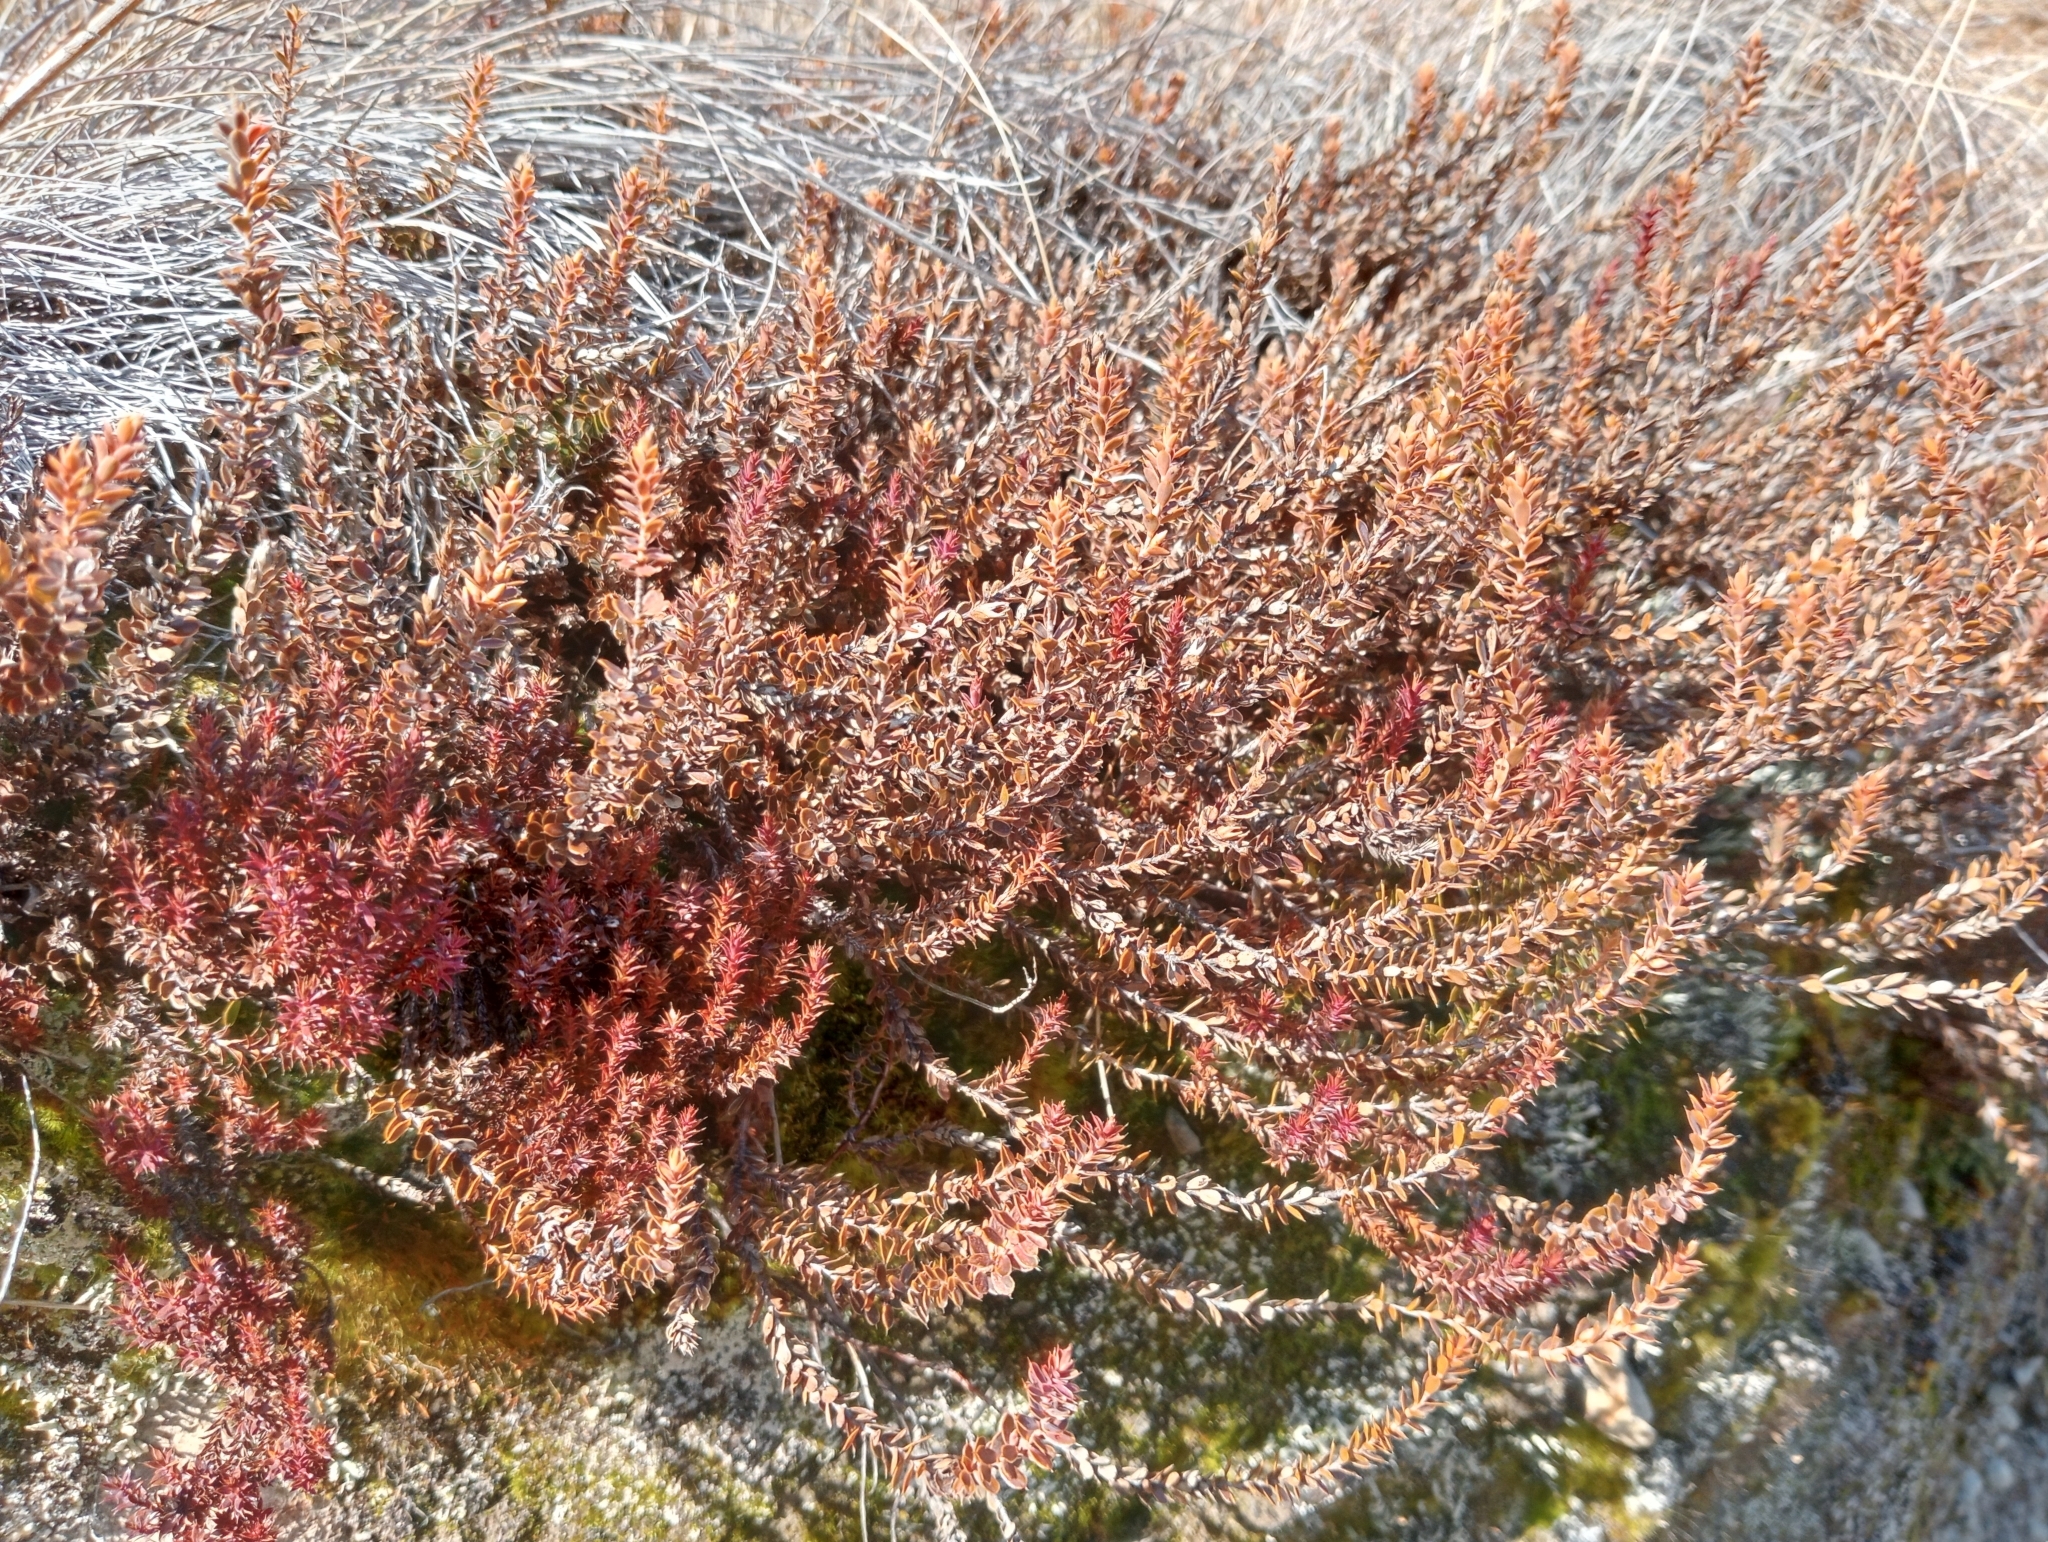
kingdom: Plantae
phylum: Tracheophyta
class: Magnoliopsida
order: Ericales
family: Ericaceae
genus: Styphelia
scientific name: Styphelia nesophila
